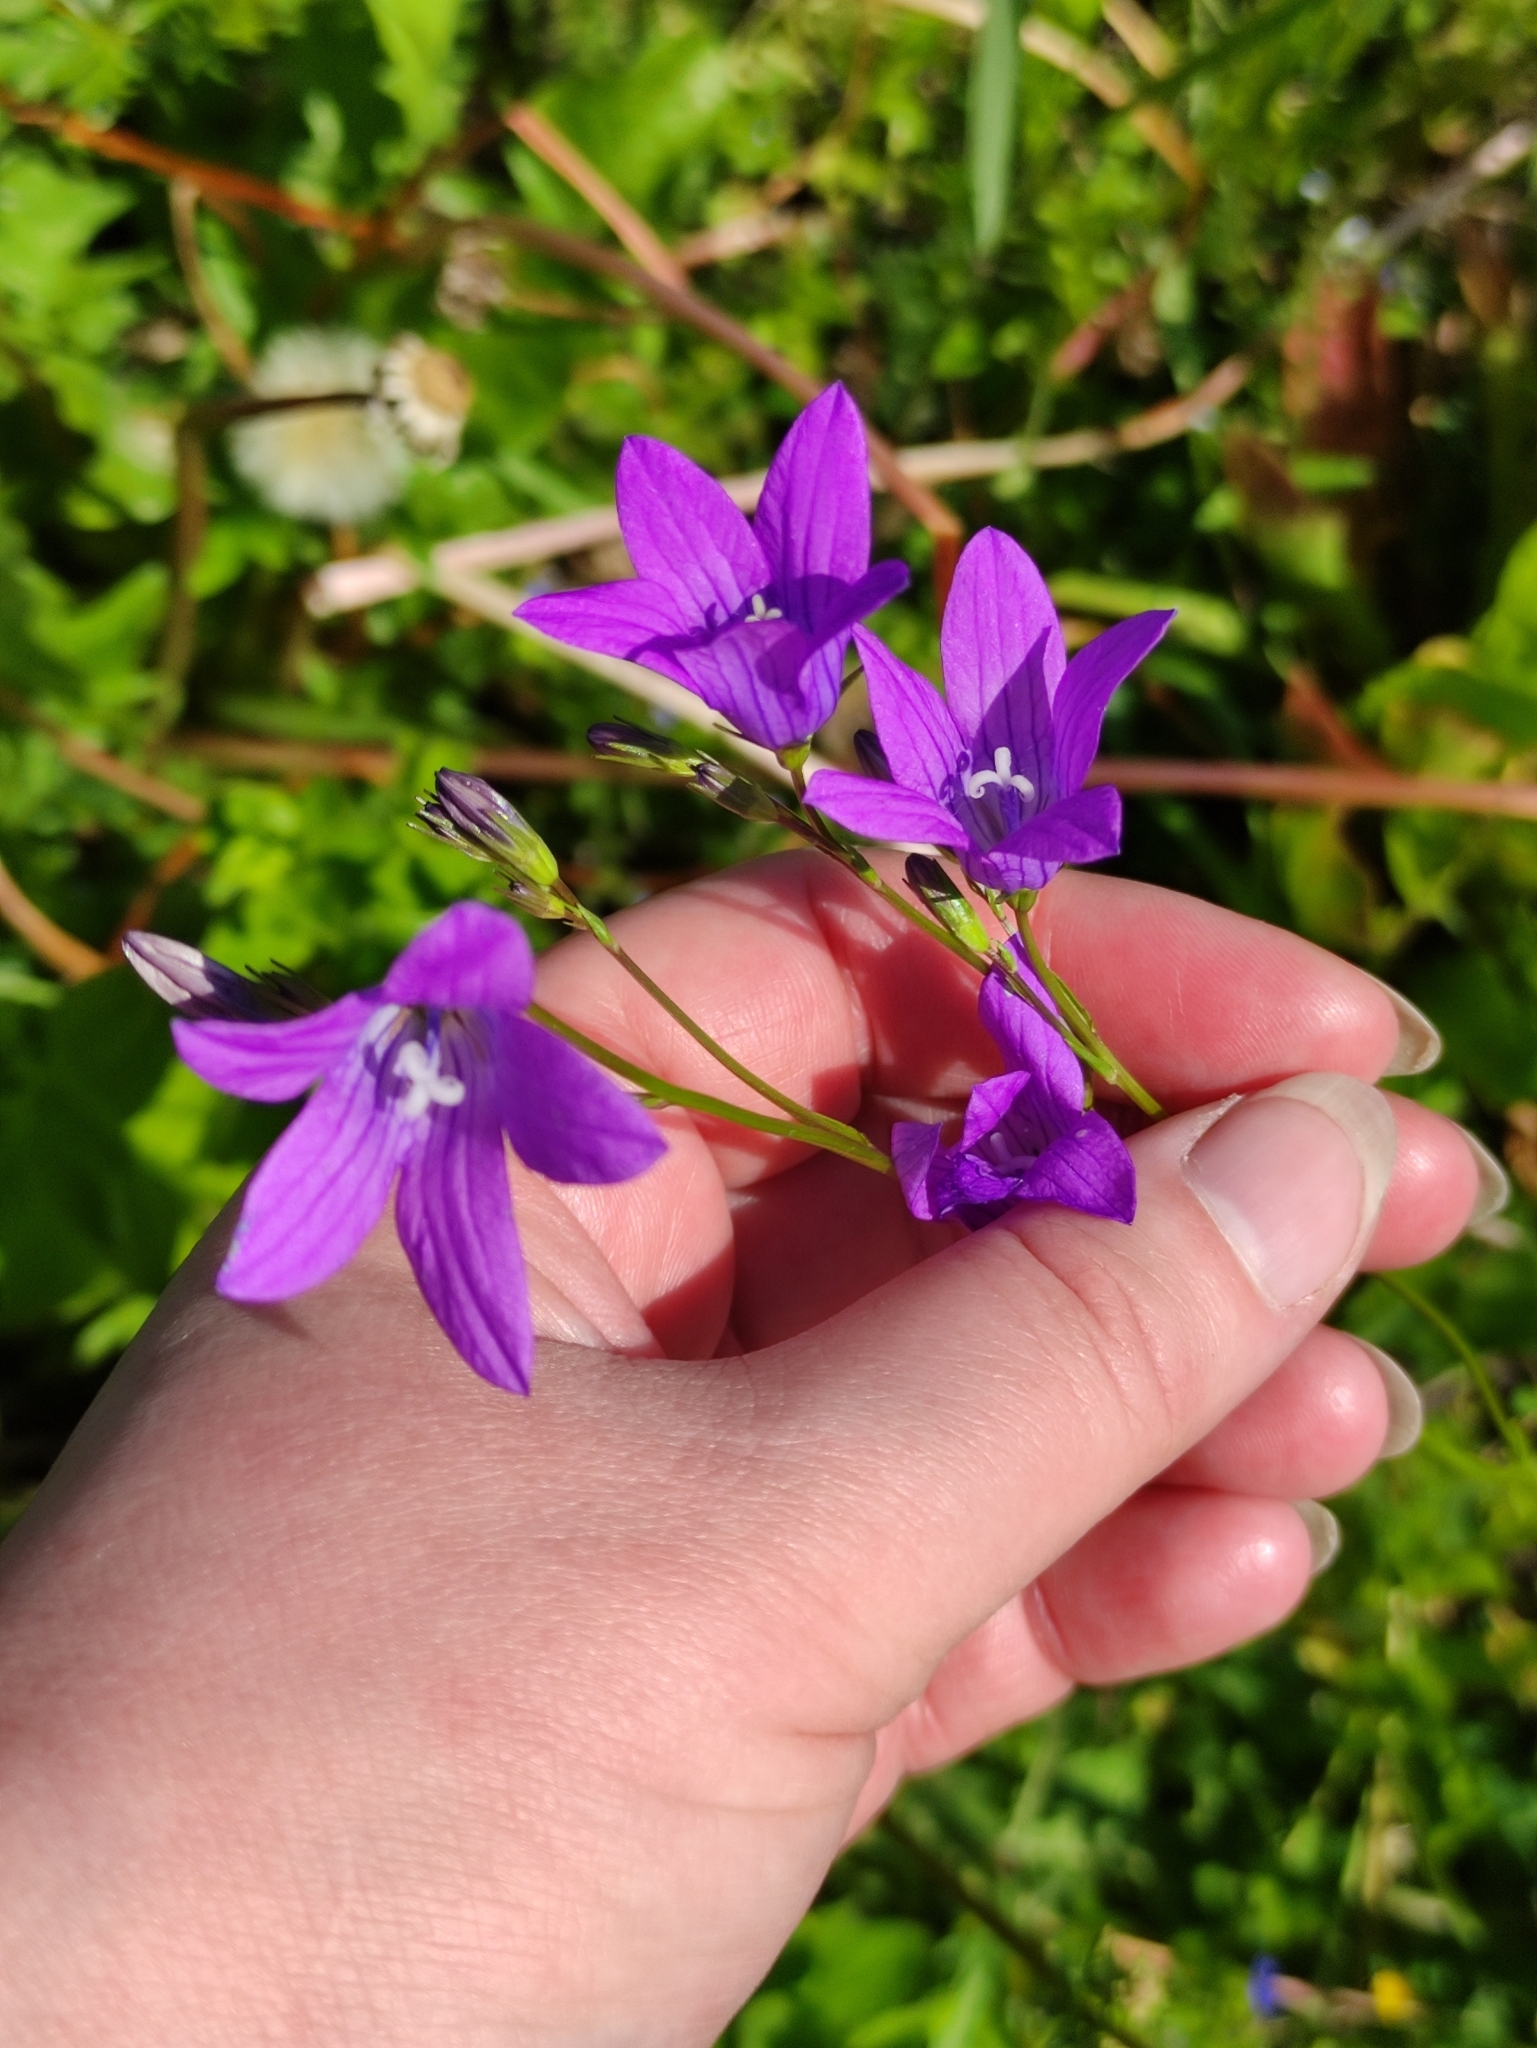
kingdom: Plantae
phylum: Tracheophyta
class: Magnoliopsida
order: Asterales
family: Campanulaceae
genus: Campanula
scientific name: Campanula patula
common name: Spreading bellflower
